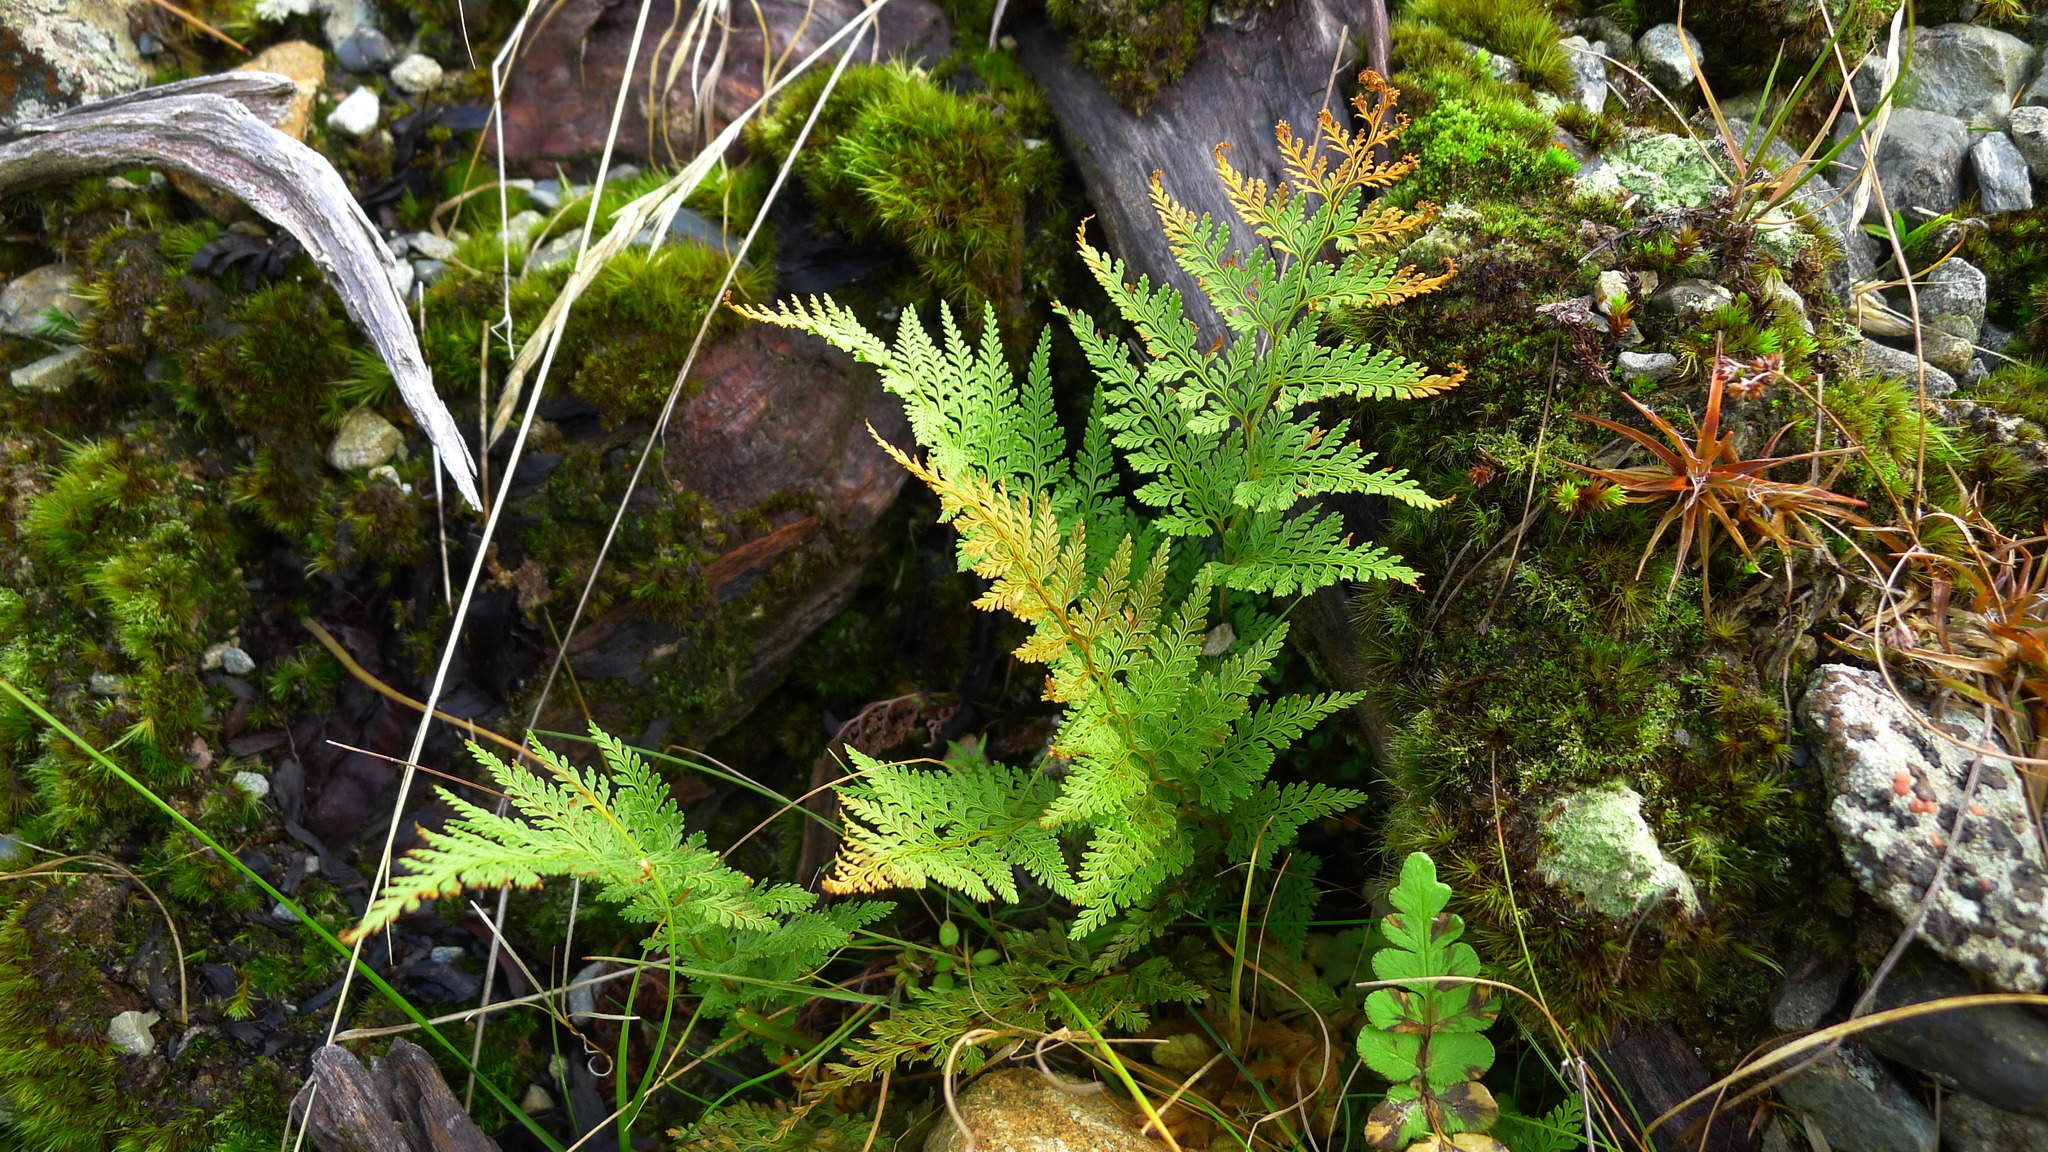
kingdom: Plantae
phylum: Tracheophyta
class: Polypodiopsida
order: Polypodiales
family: Dennstaedtiaceae
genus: Paesia
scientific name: Paesia scaberula
